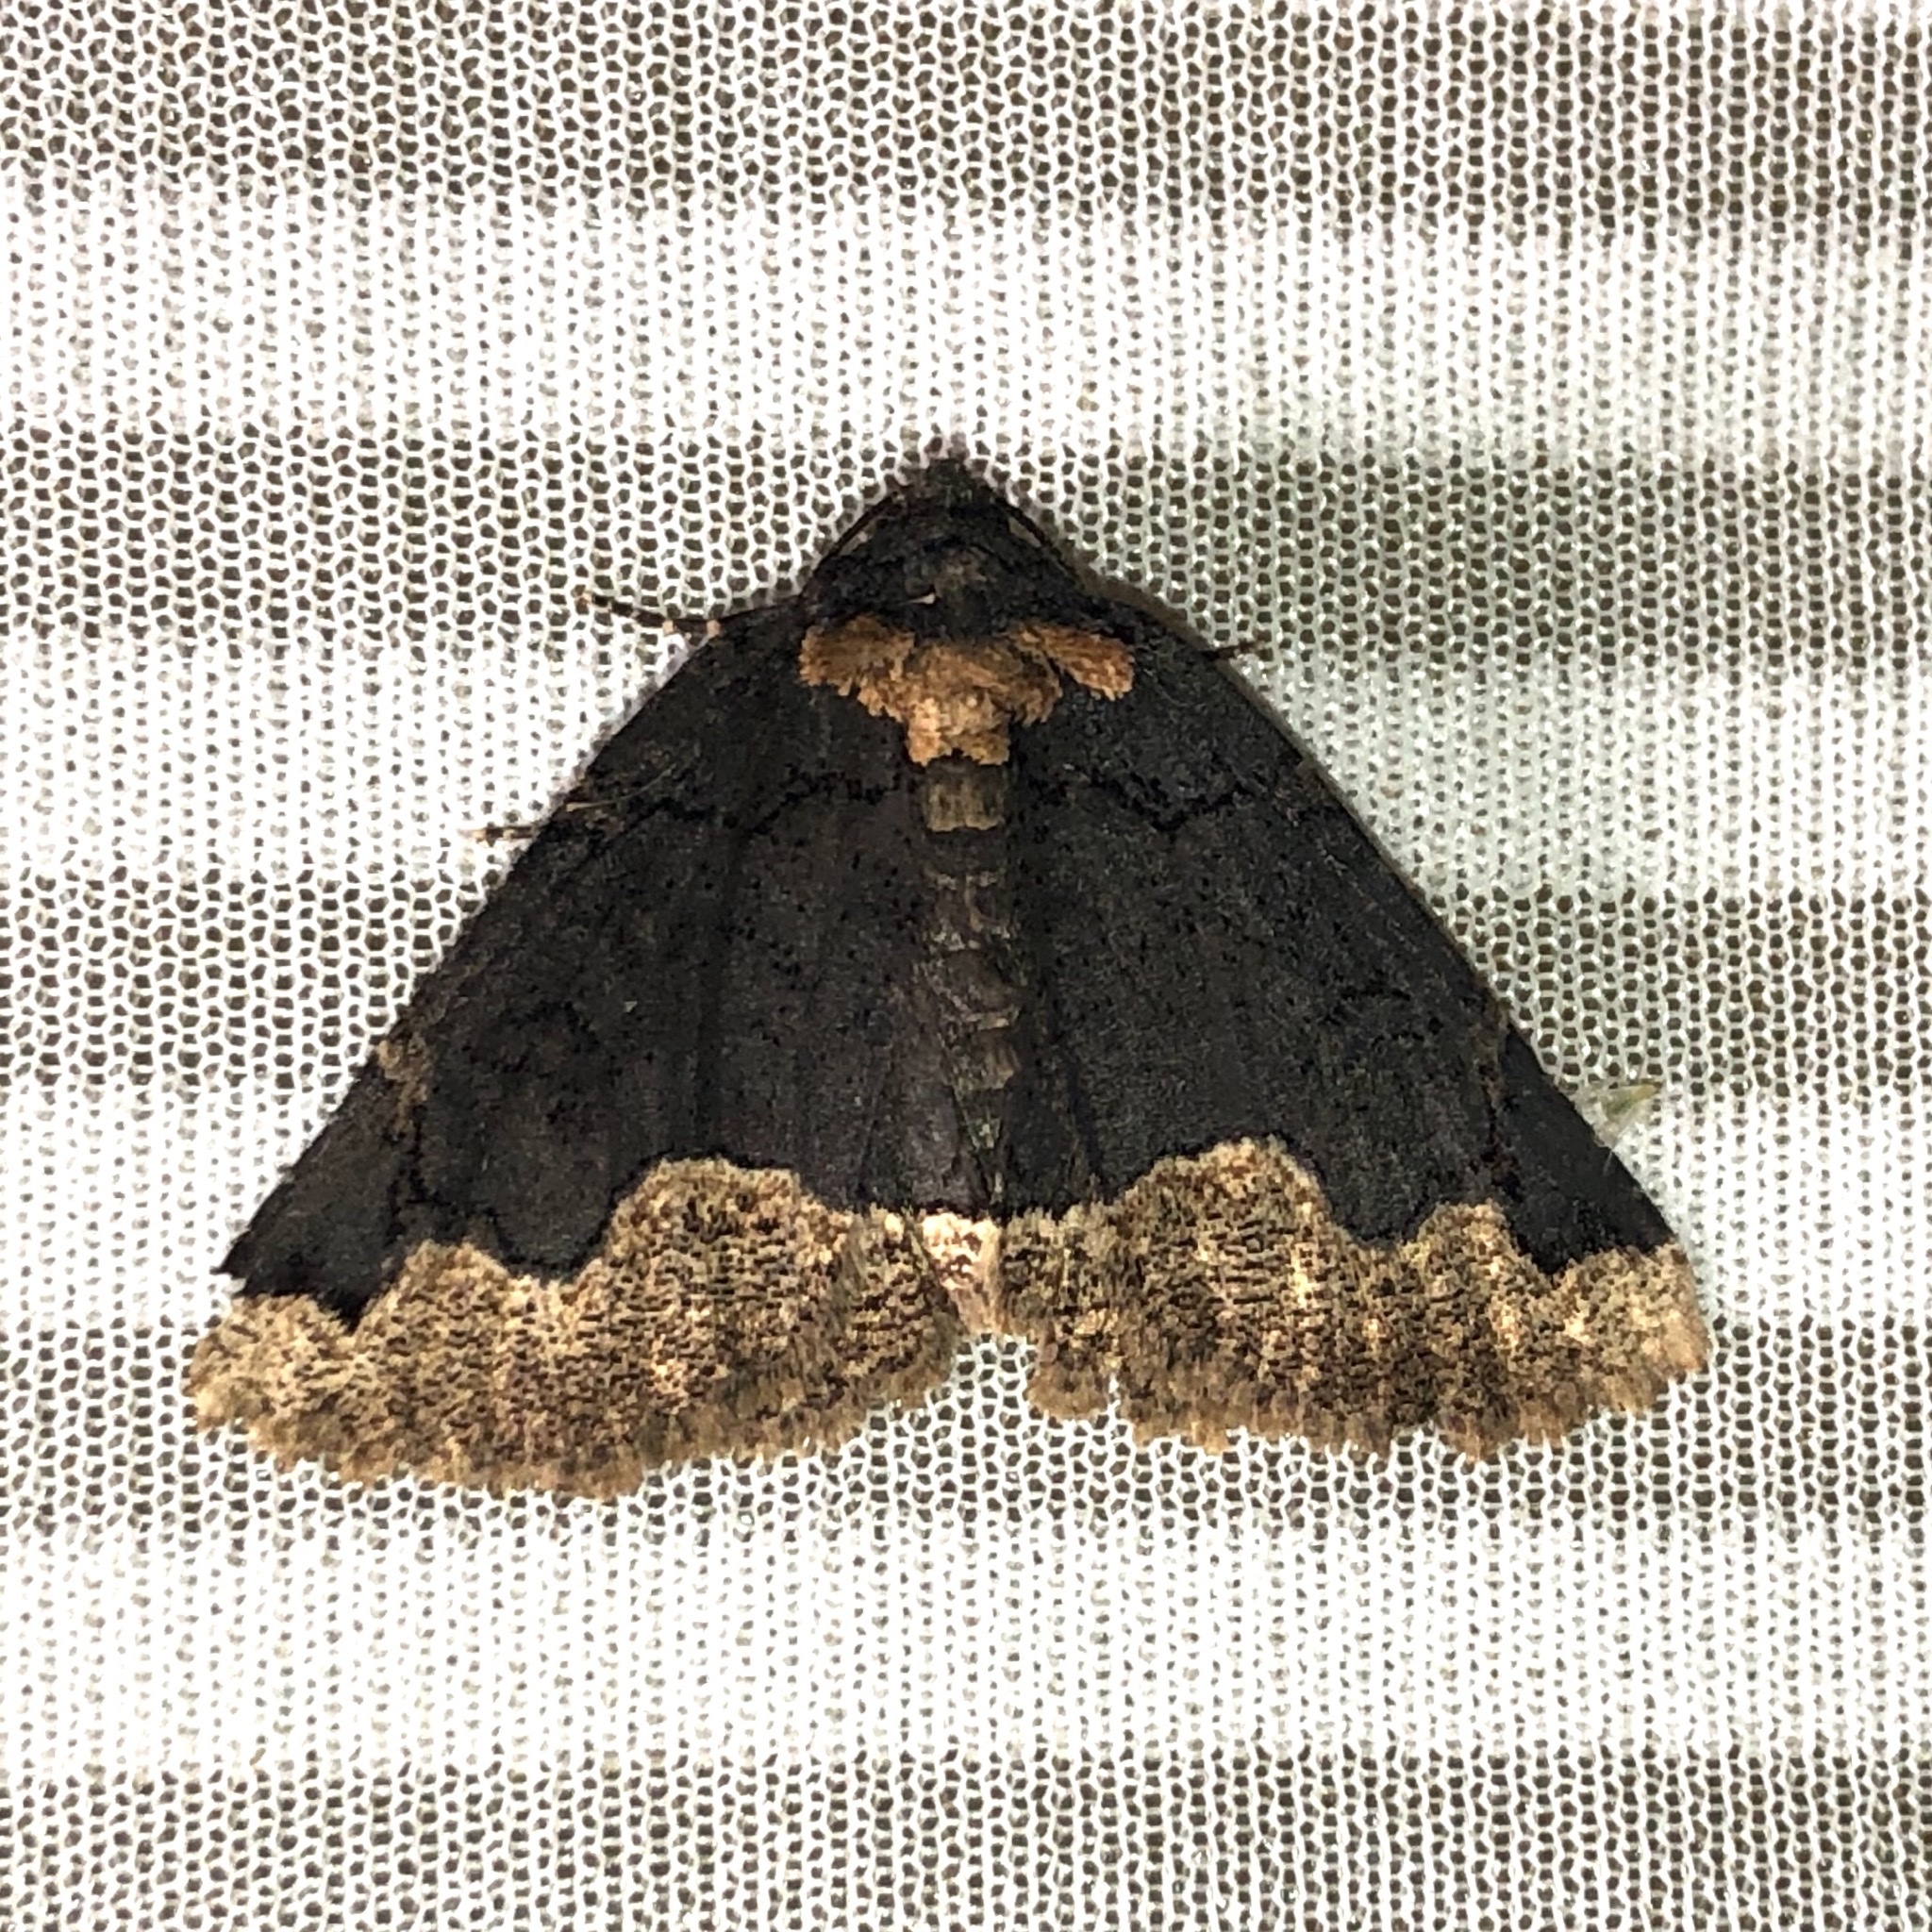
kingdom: Animalia
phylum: Arthropoda
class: Insecta
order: Lepidoptera
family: Erebidae
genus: Zale
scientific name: Zale horrida
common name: Horrid zale moth
